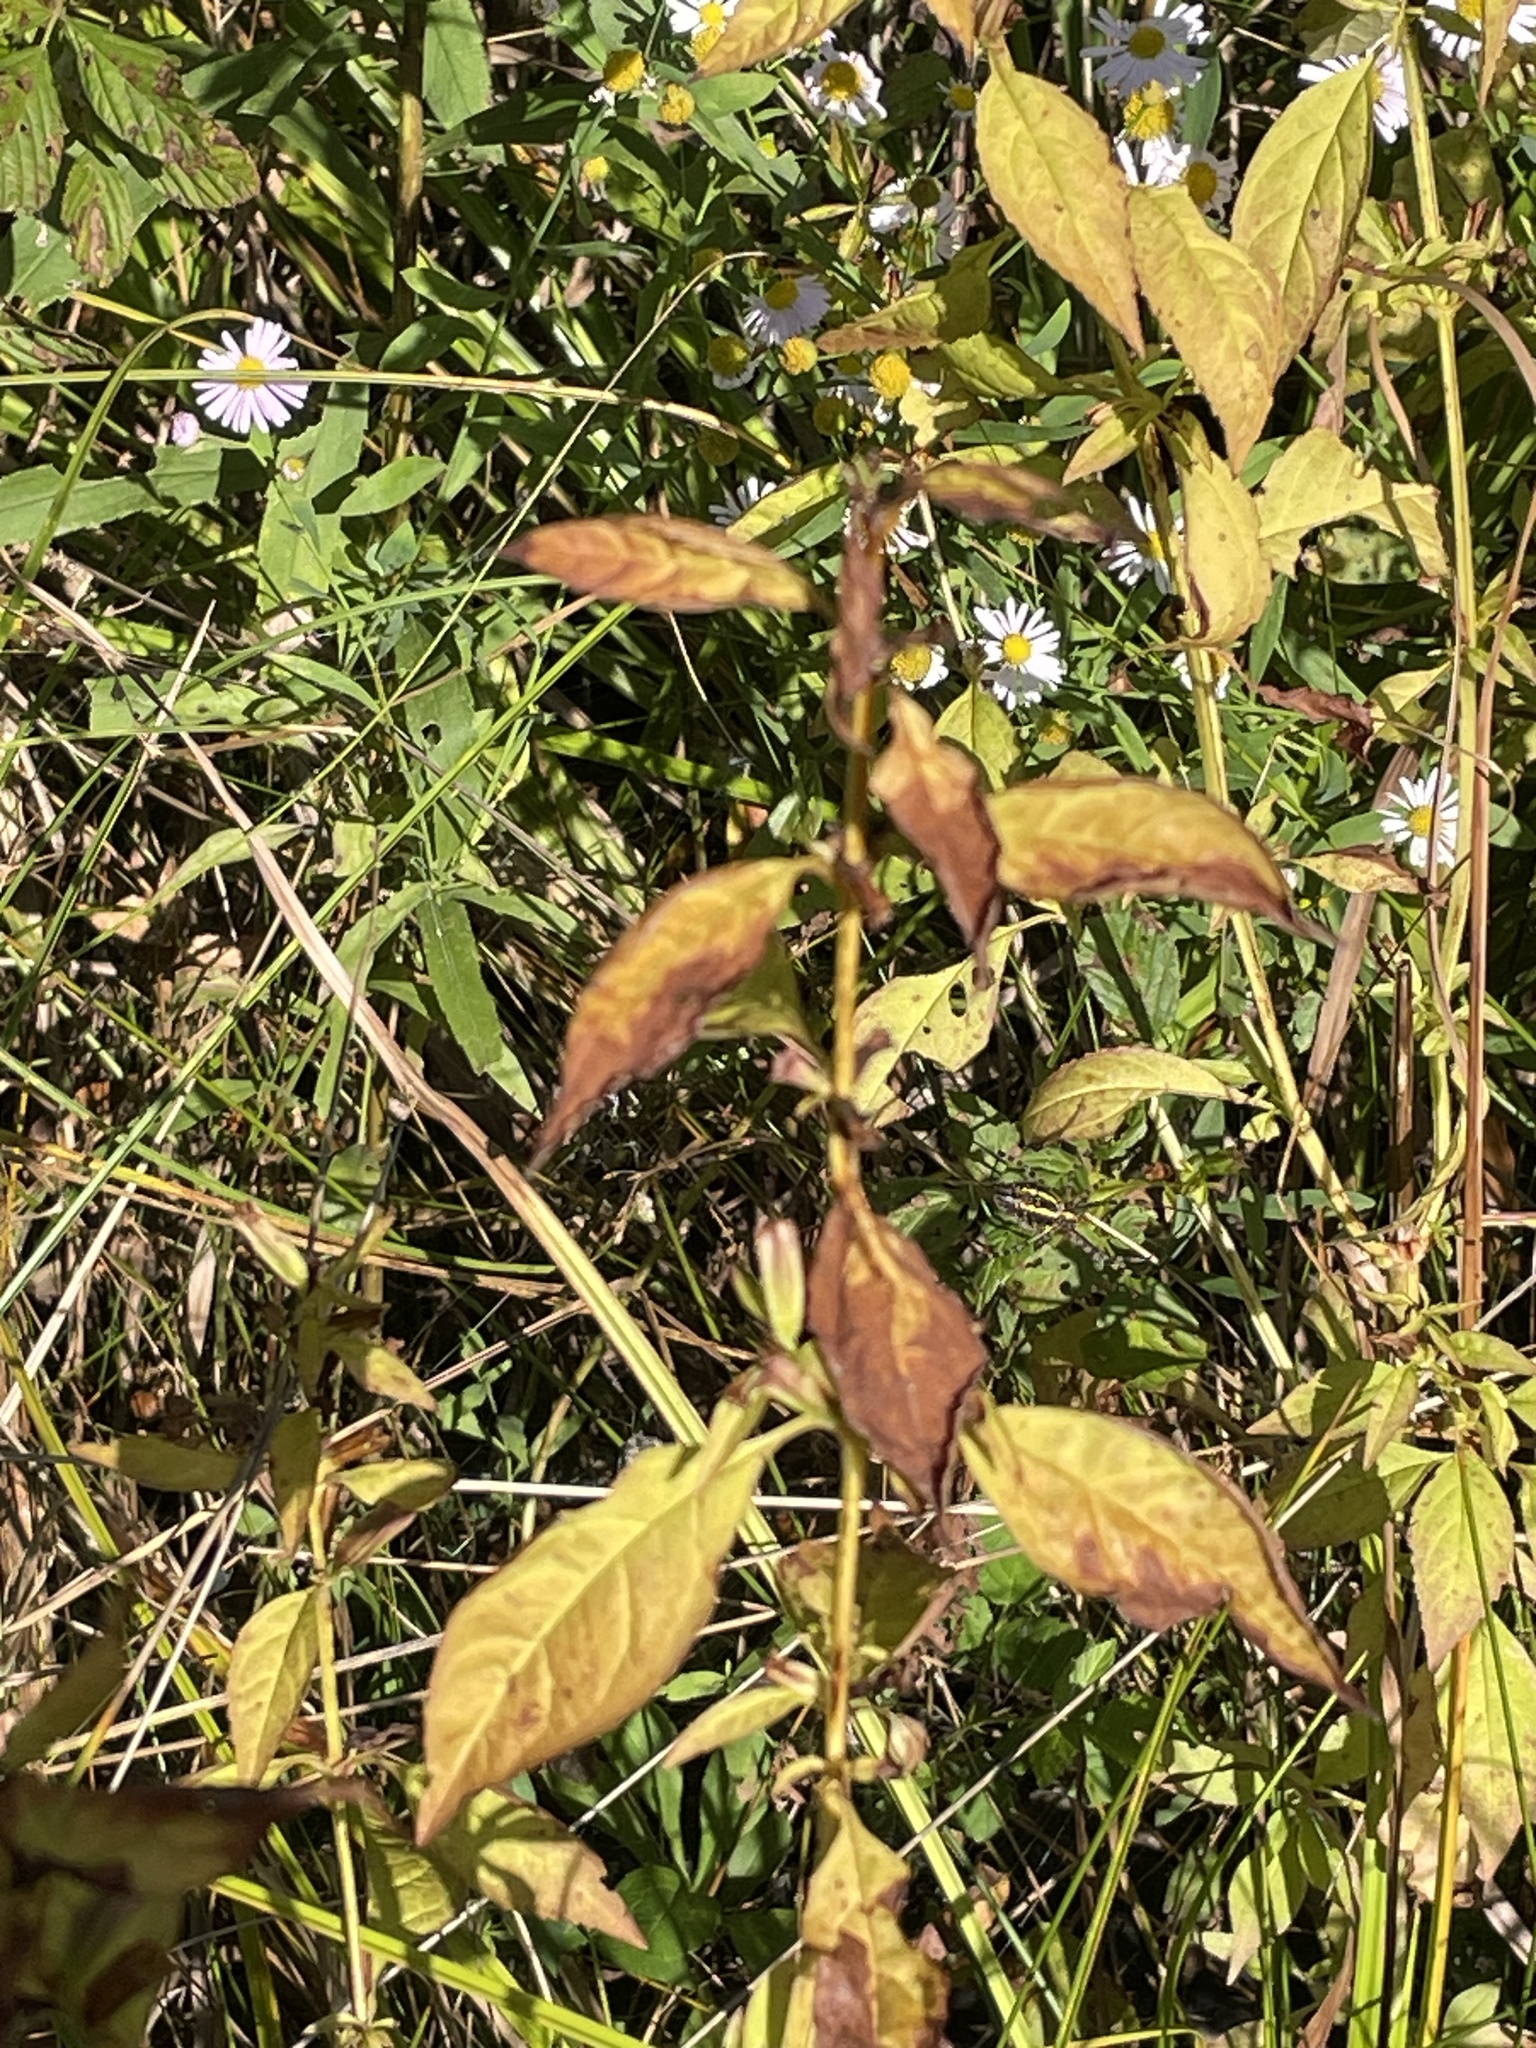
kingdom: Plantae
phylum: Tracheophyta
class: Magnoliopsida
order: Lamiales
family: Phrymaceae
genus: Mimulus
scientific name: Mimulus alatus
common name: Sharp-wing monkey-flower
